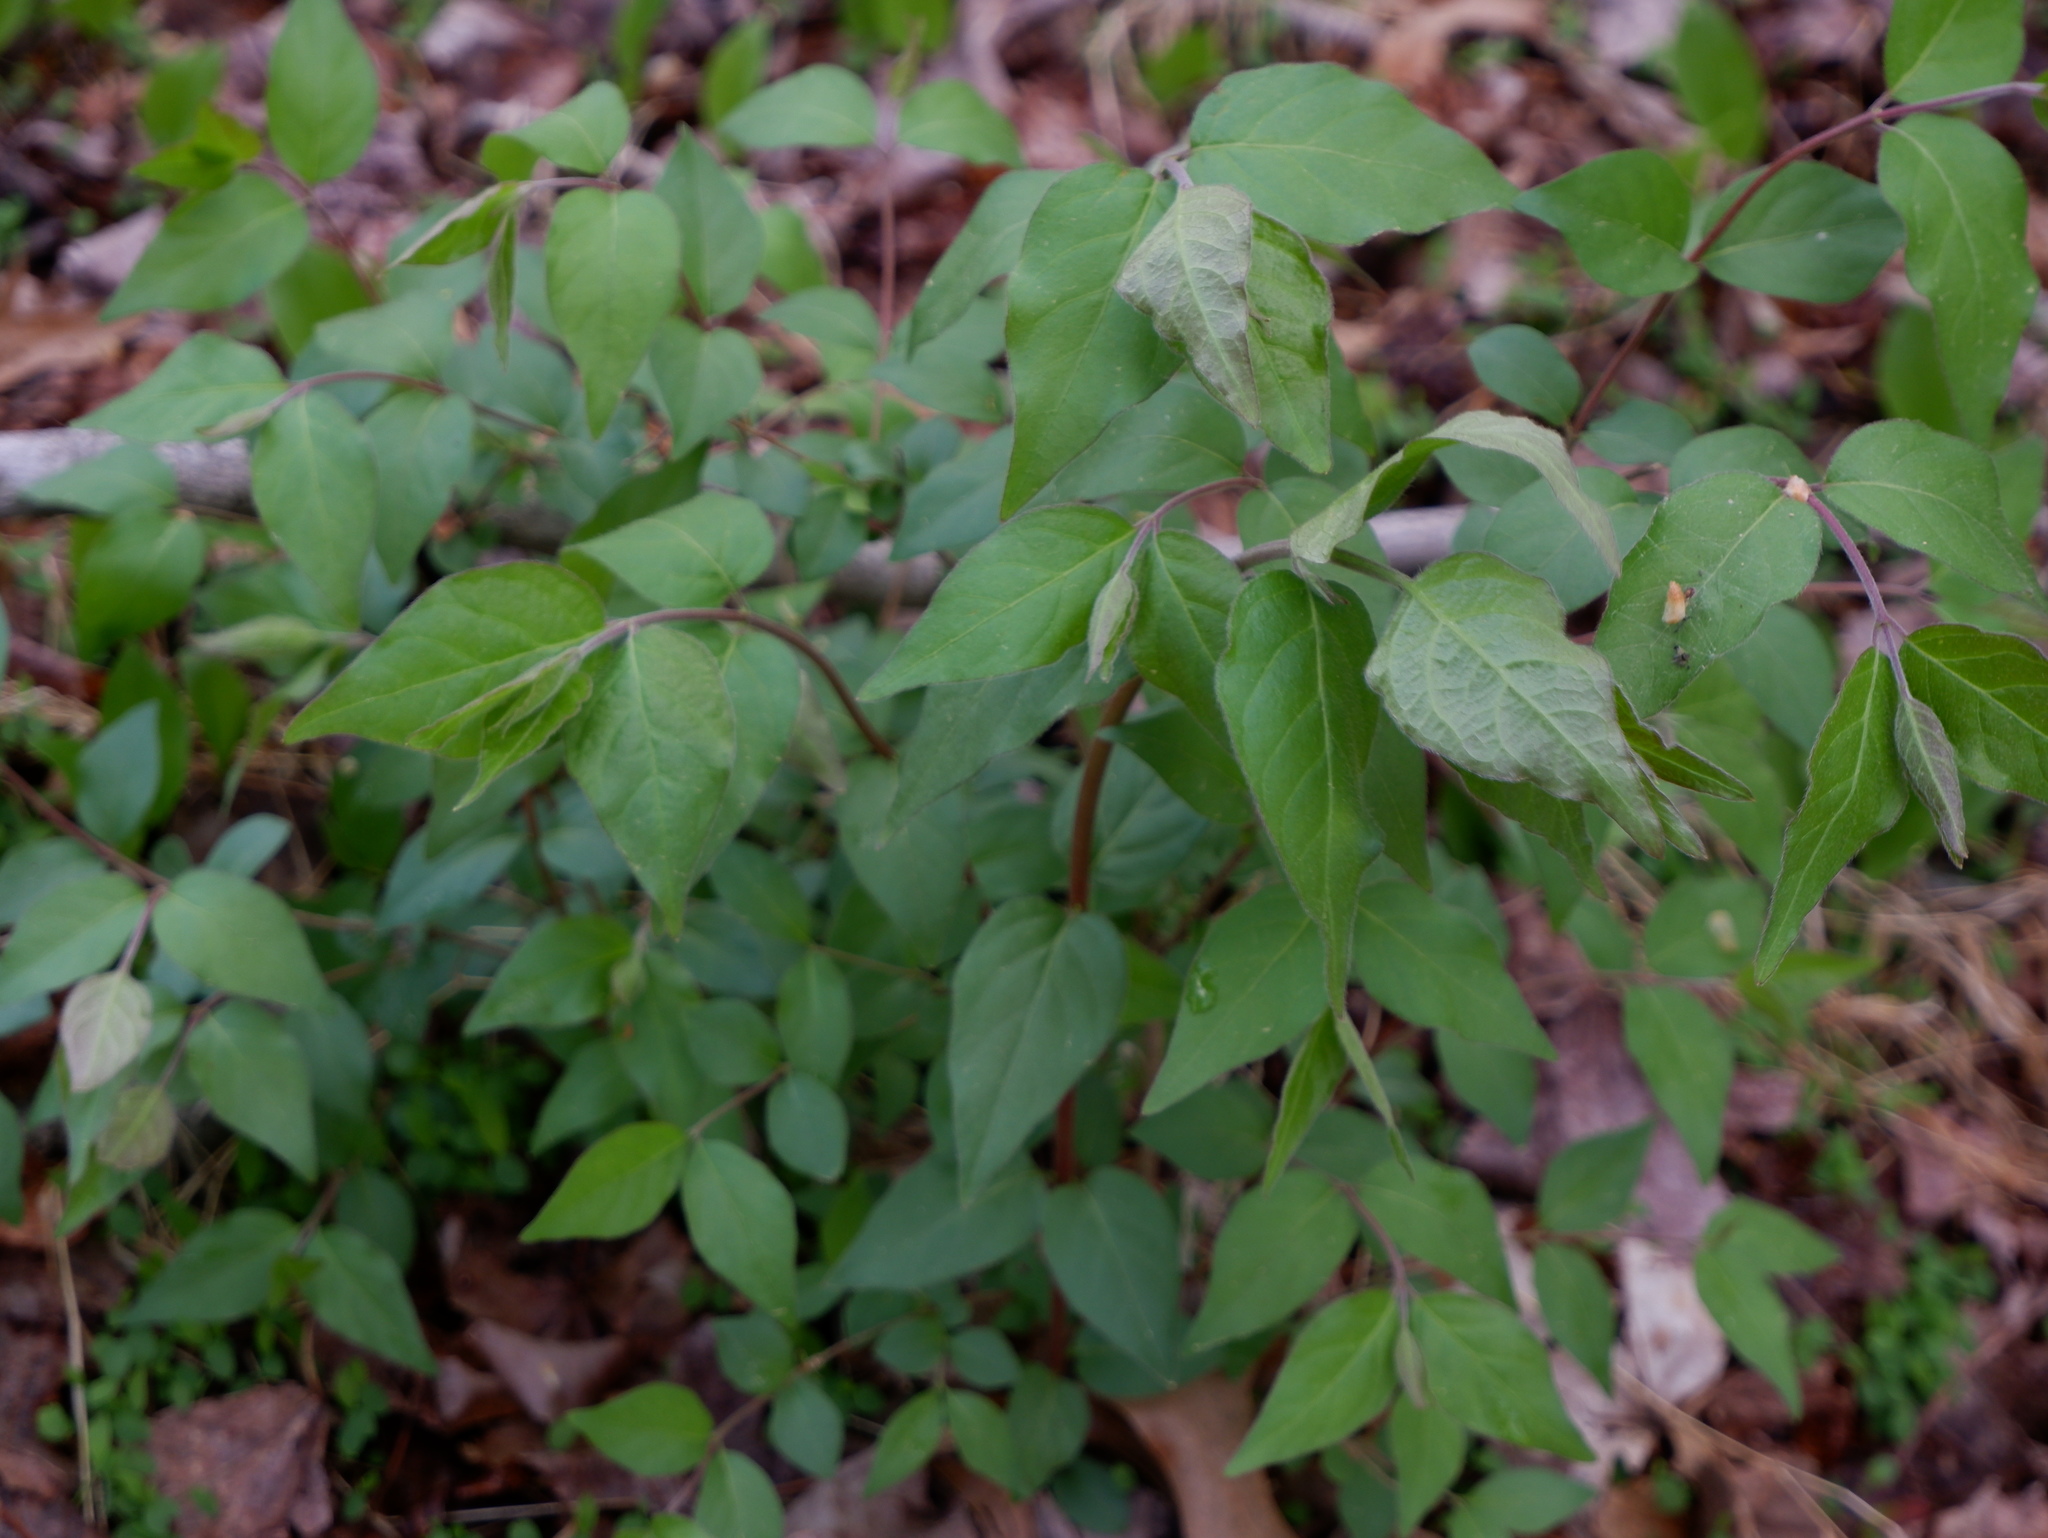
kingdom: Plantae
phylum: Tracheophyta
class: Magnoliopsida
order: Dipsacales
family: Caprifoliaceae
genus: Lonicera
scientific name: Lonicera maackii
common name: Amur honeysuckle
